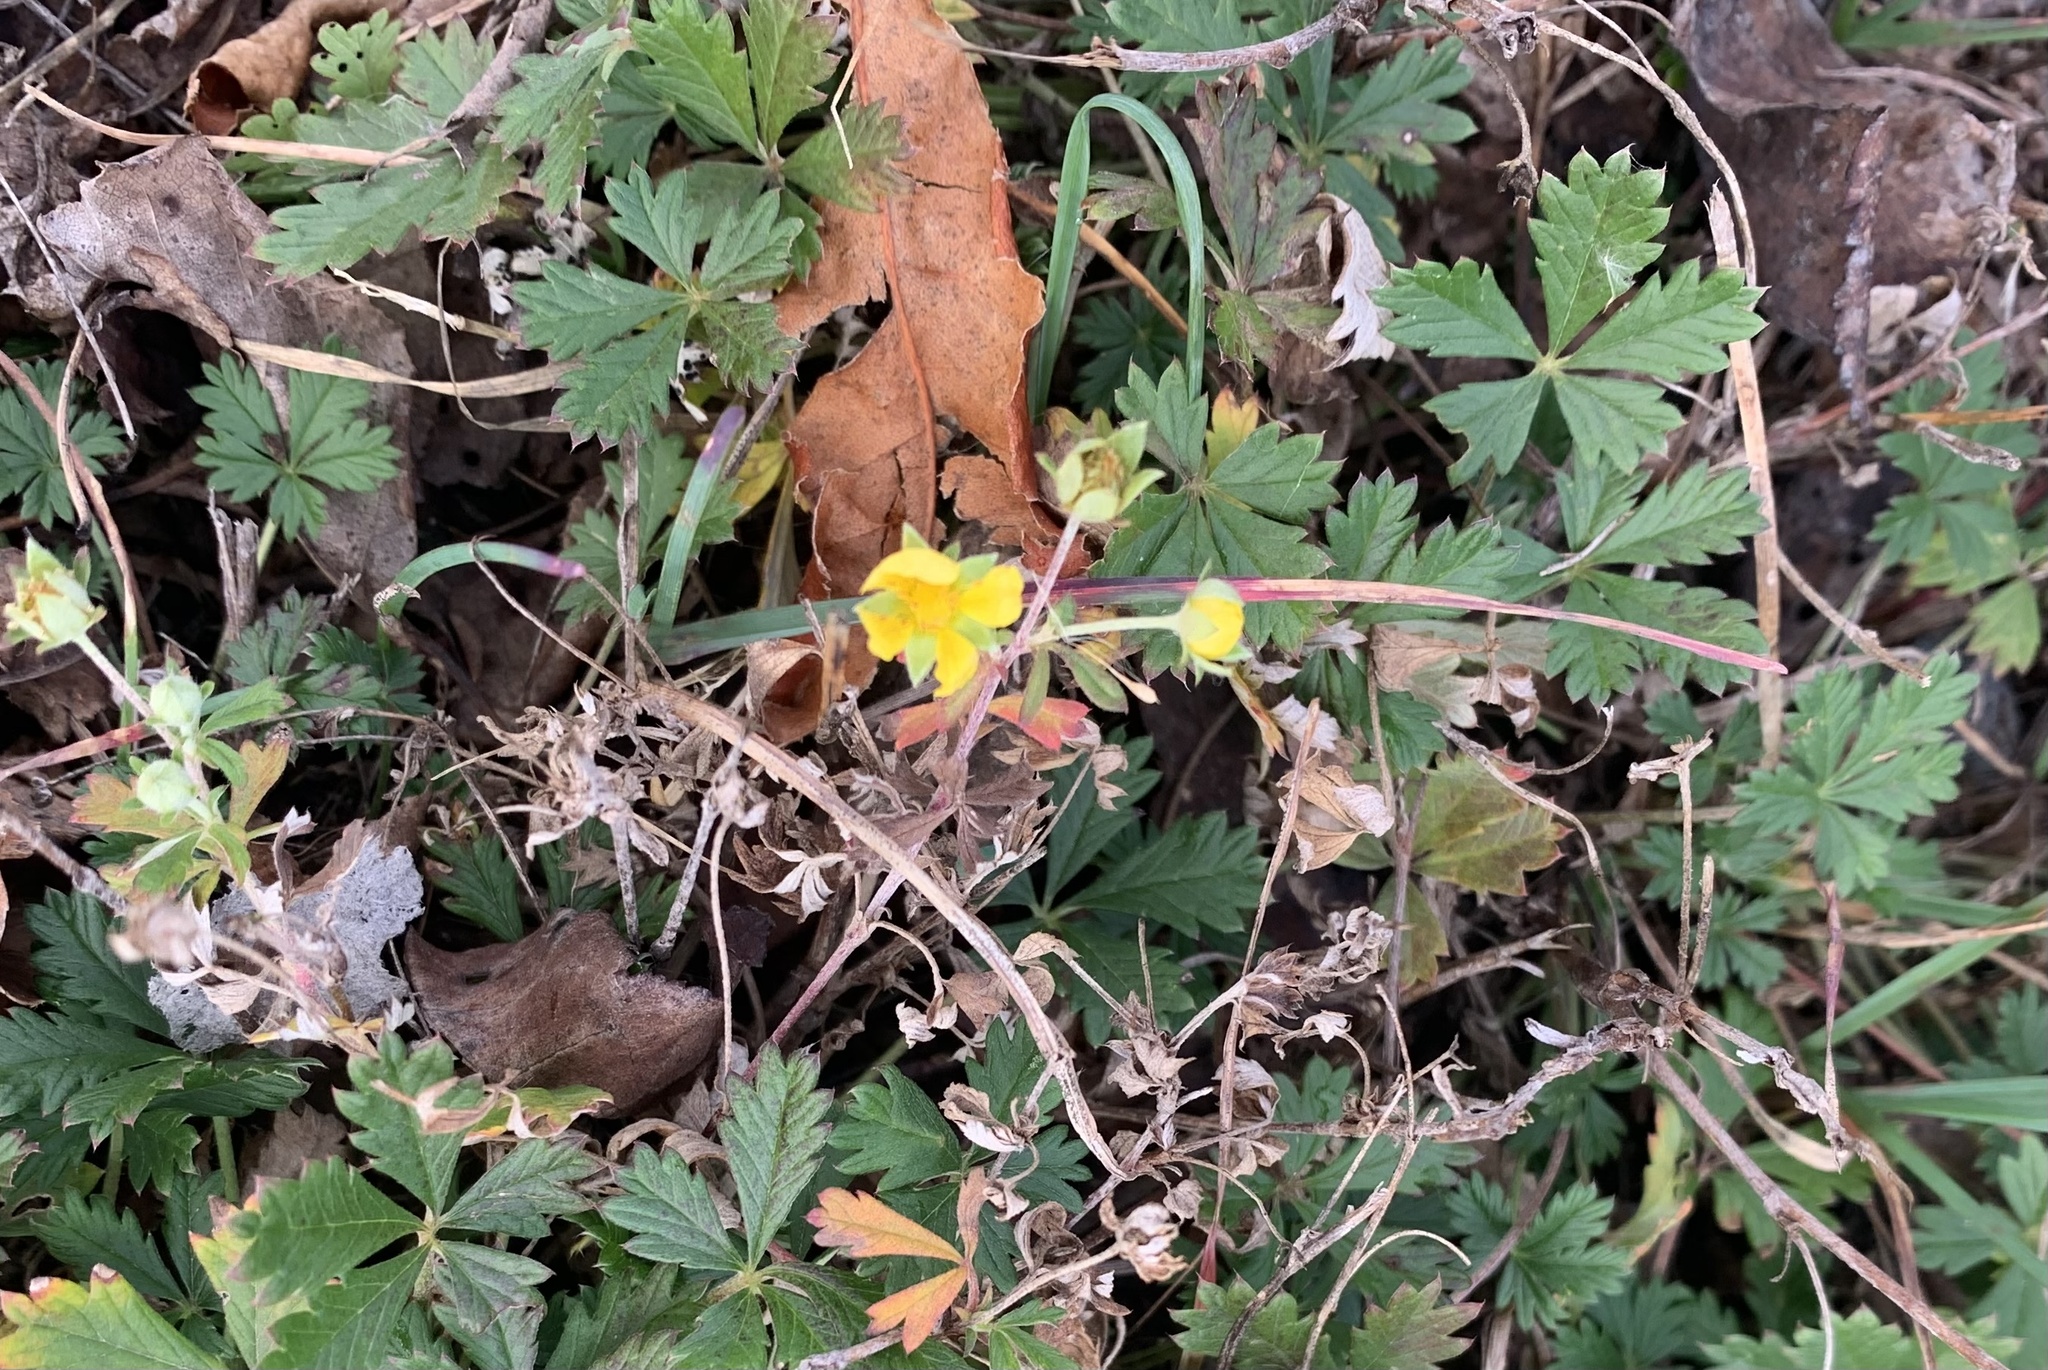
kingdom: Plantae
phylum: Tracheophyta
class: Magnoliopsida
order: Rosales
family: Rosaceae
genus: Potentilla
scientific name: Potentilla argentea
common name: Hoary cinquefoil
